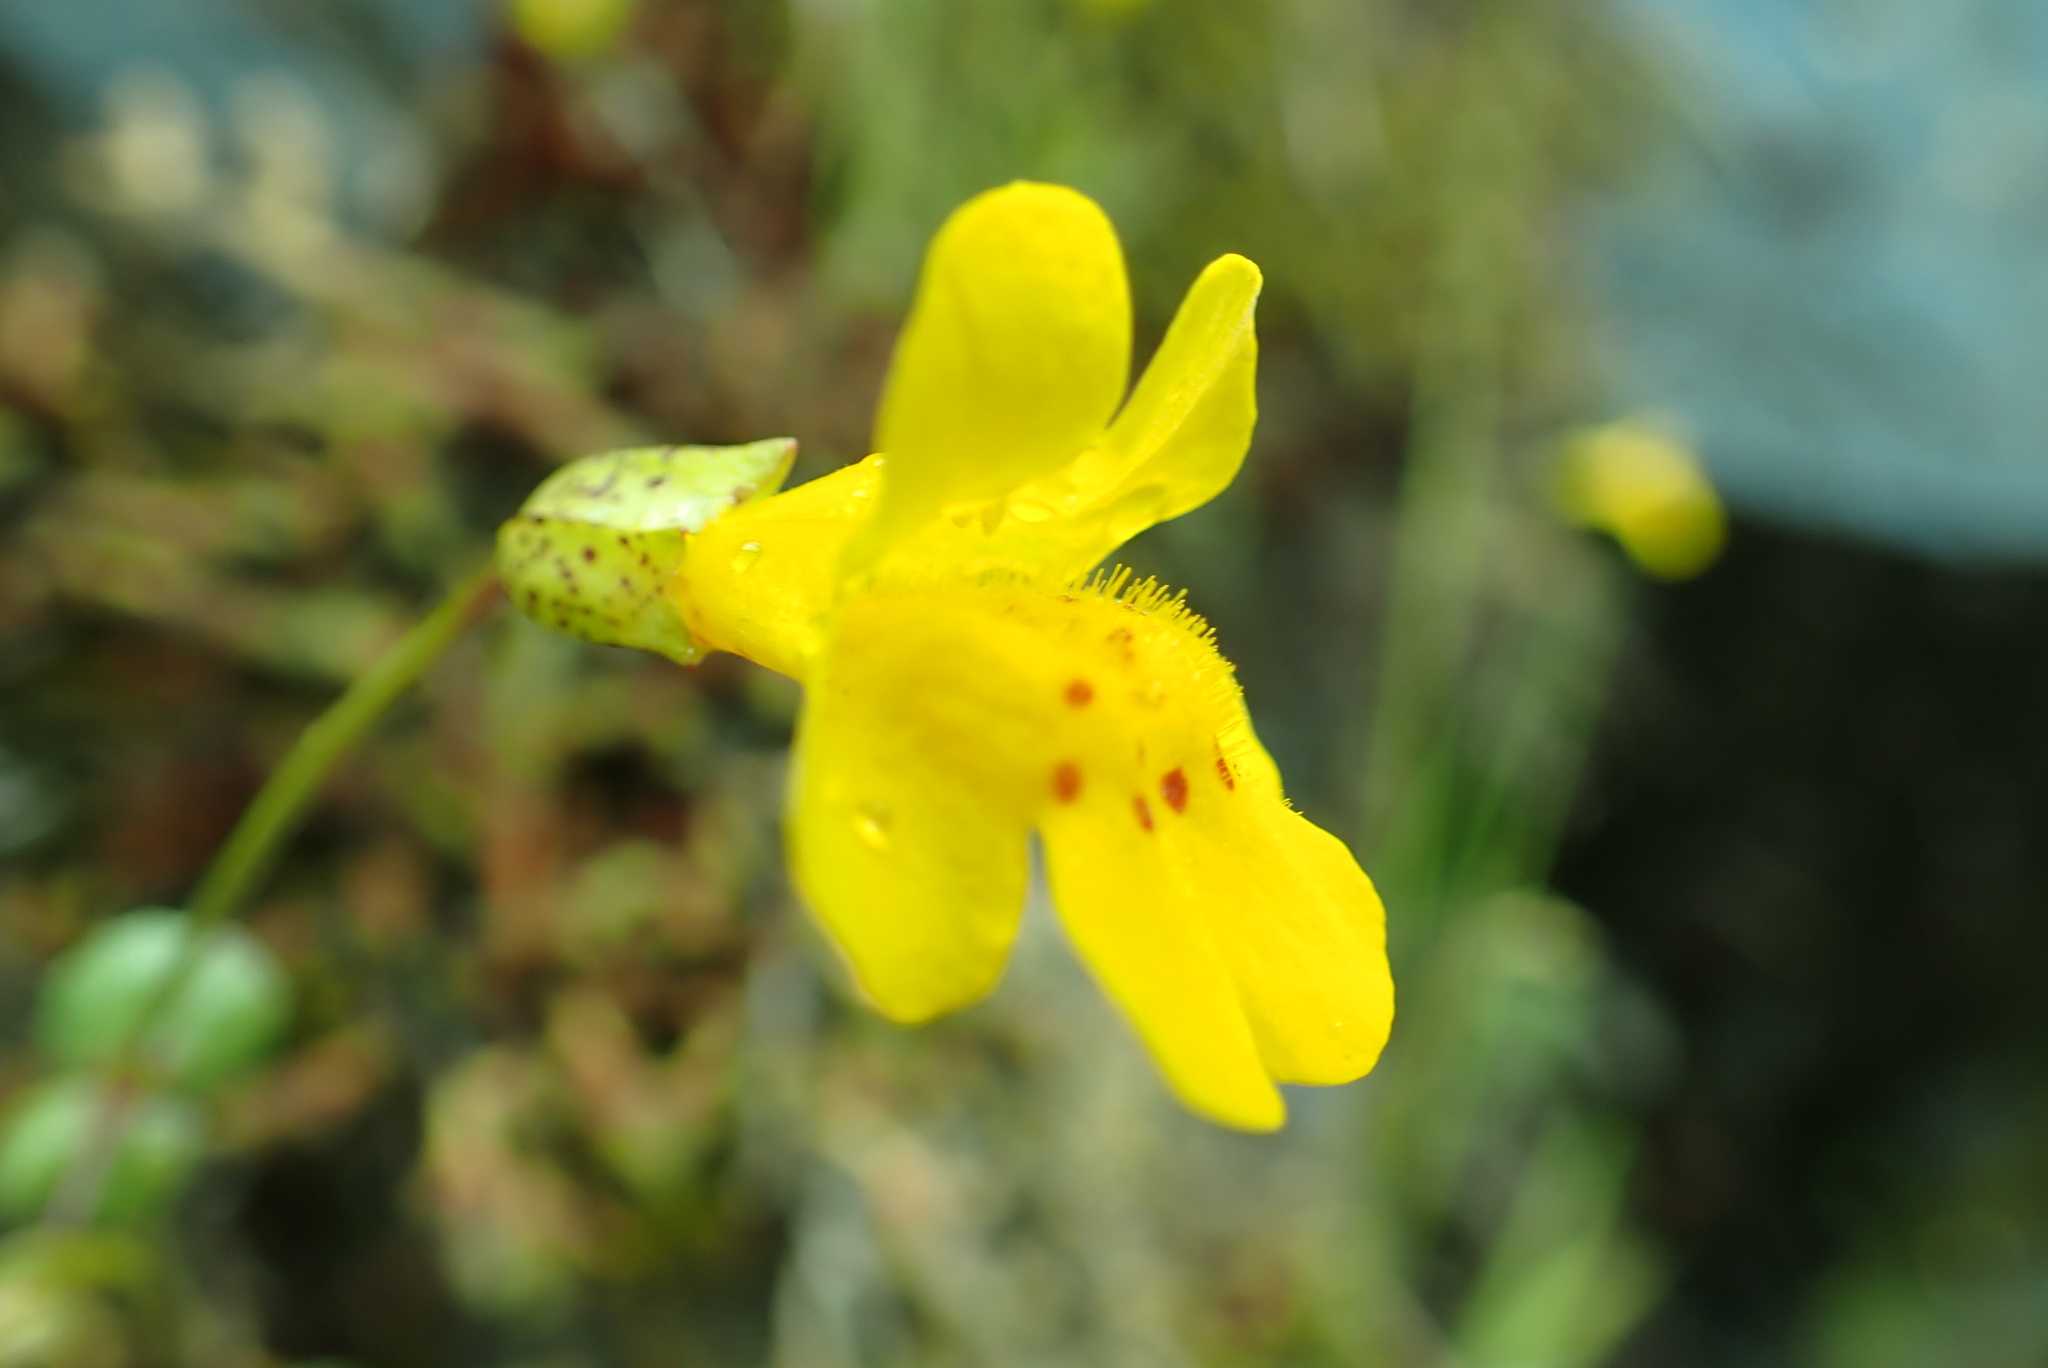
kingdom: Plantae
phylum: Tracheophyta
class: Magnoliopsida
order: Lamiales
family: Phrymaceae
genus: Erythranthe
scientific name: Erythranthe microphylla
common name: Bentham's monkeyflower
